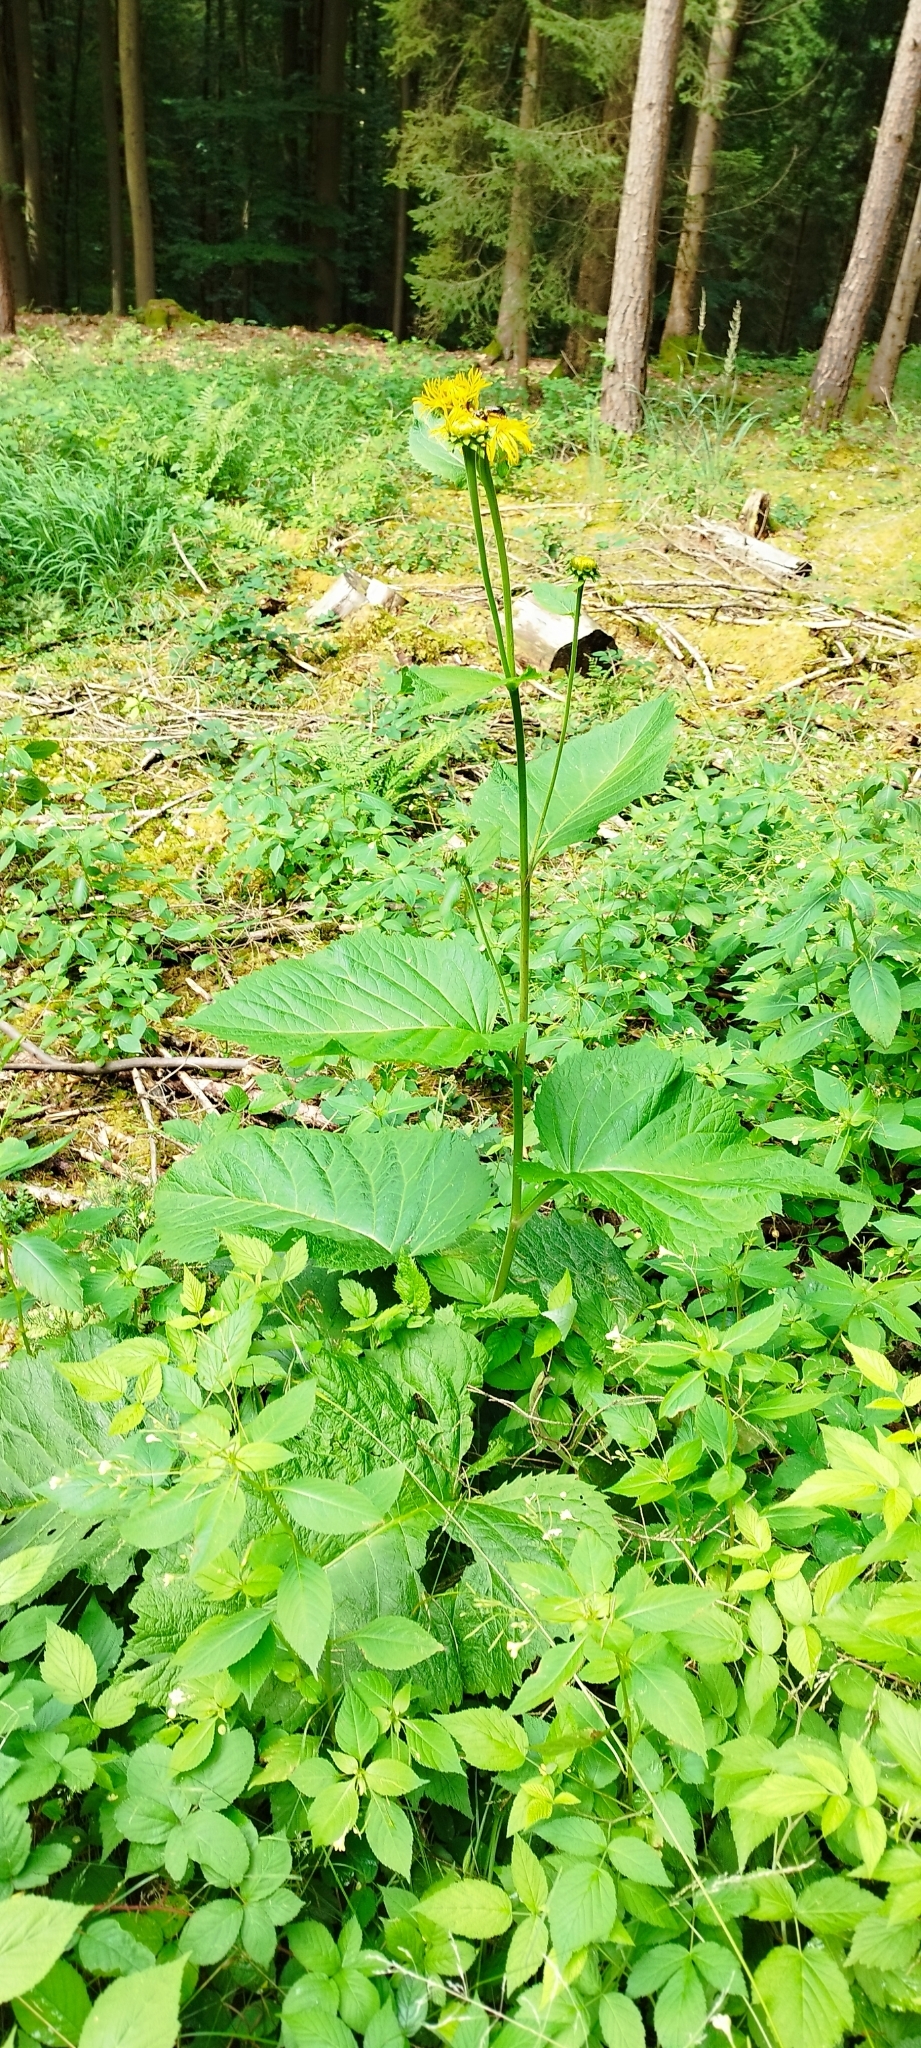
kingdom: Plantae
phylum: Tracheophyta
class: Magnoliopsida
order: Asterales
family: Asteraceae
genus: Telekia
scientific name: Telekia speciosa
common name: Yellow oxeye
